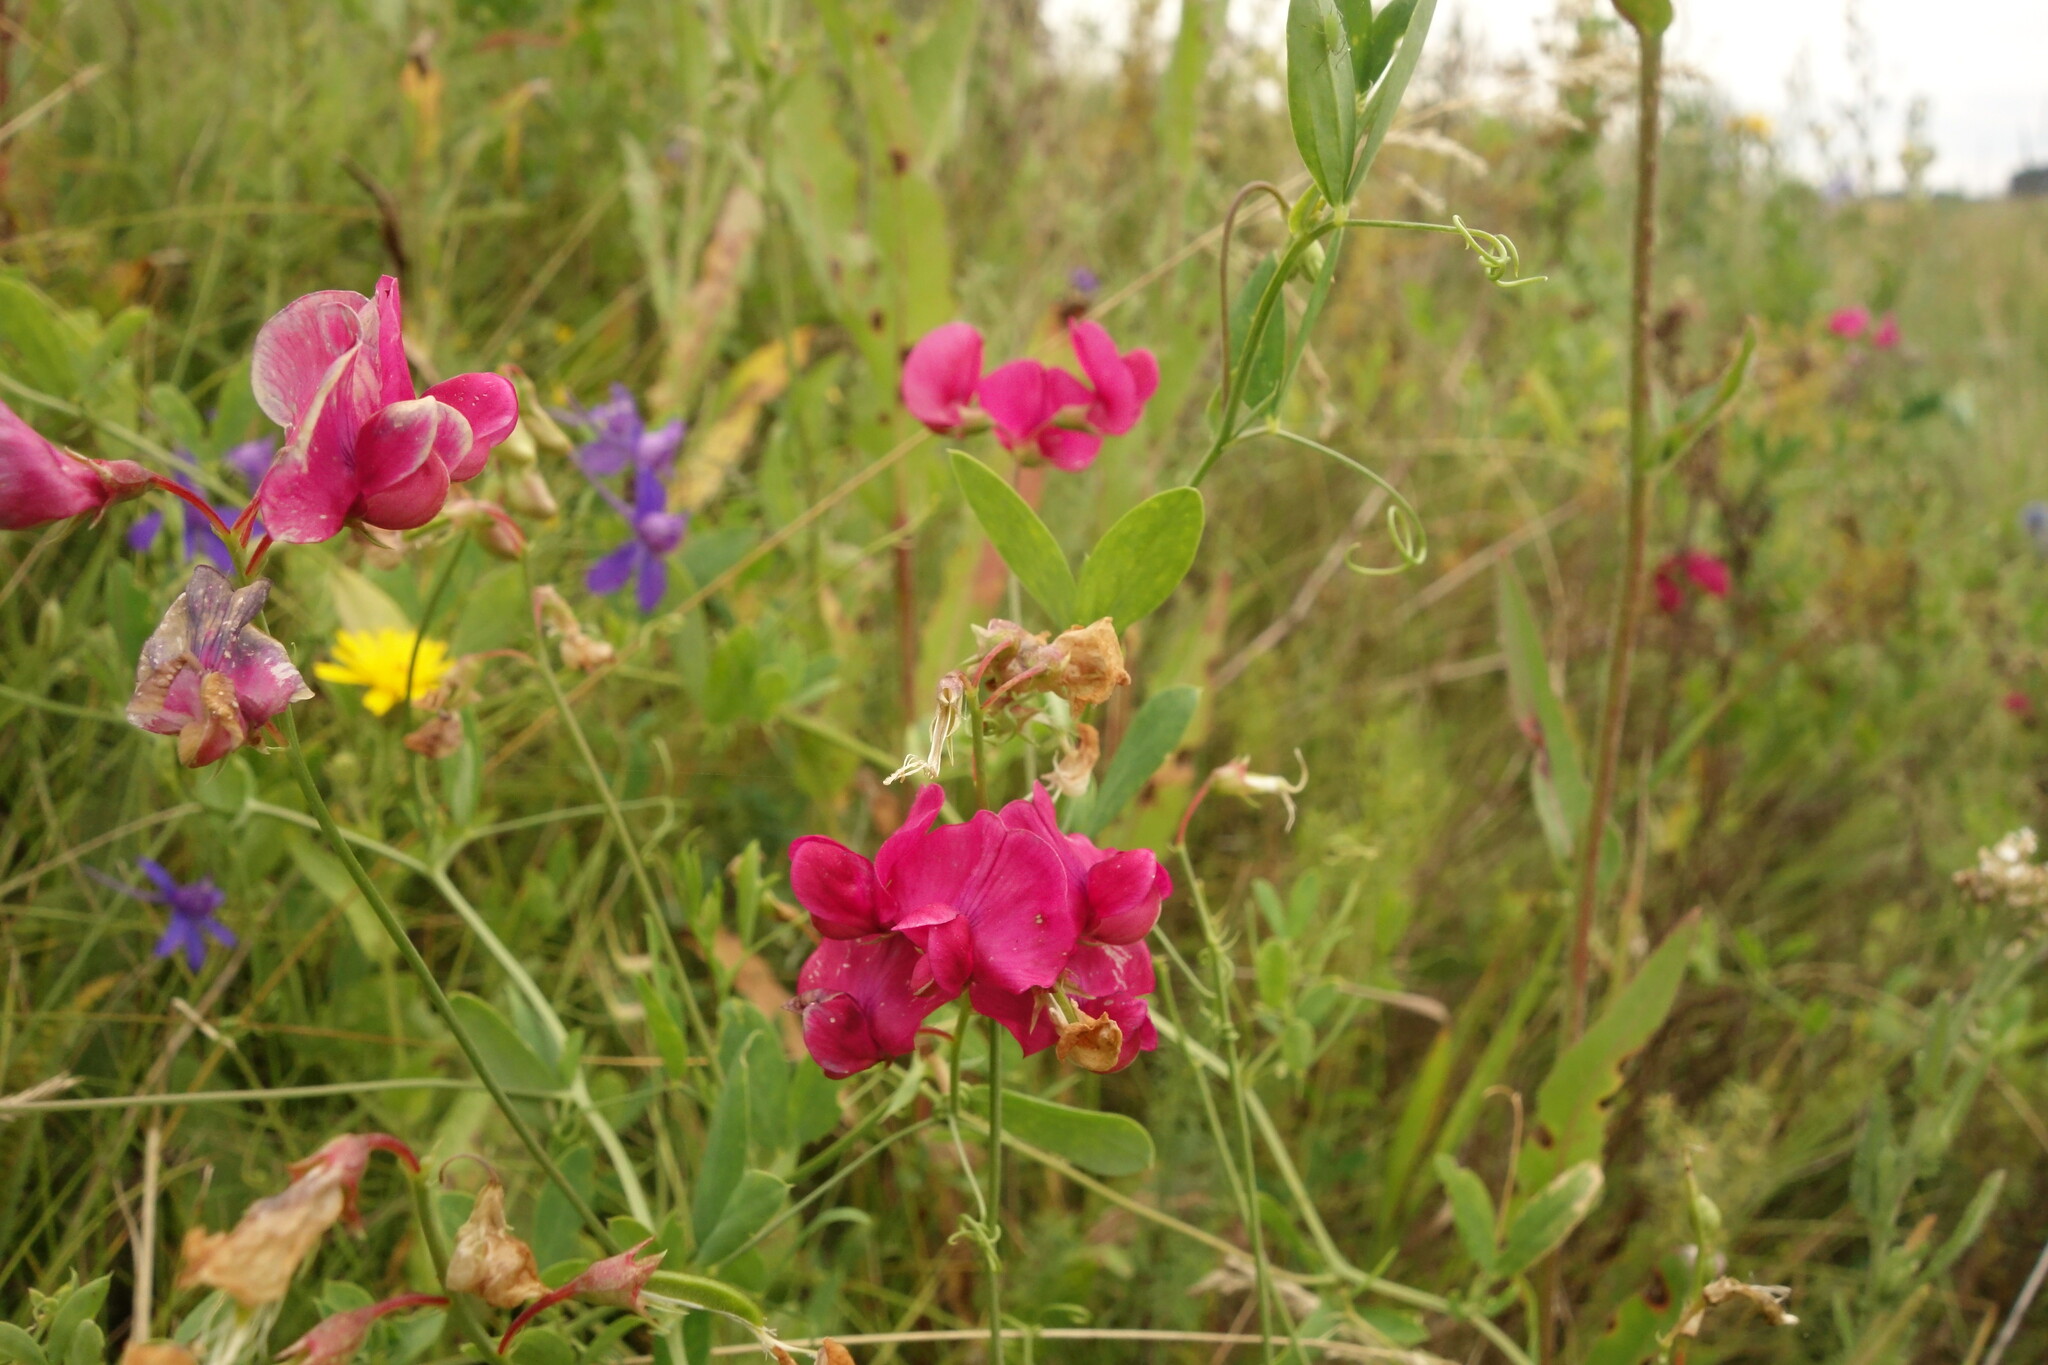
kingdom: Plantae
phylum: Tracheophyta
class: Magnoliopsida
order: Fabales
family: Fabaceae
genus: Lathyrus
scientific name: Lathyrus tuberosus
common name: Tuberous pea
